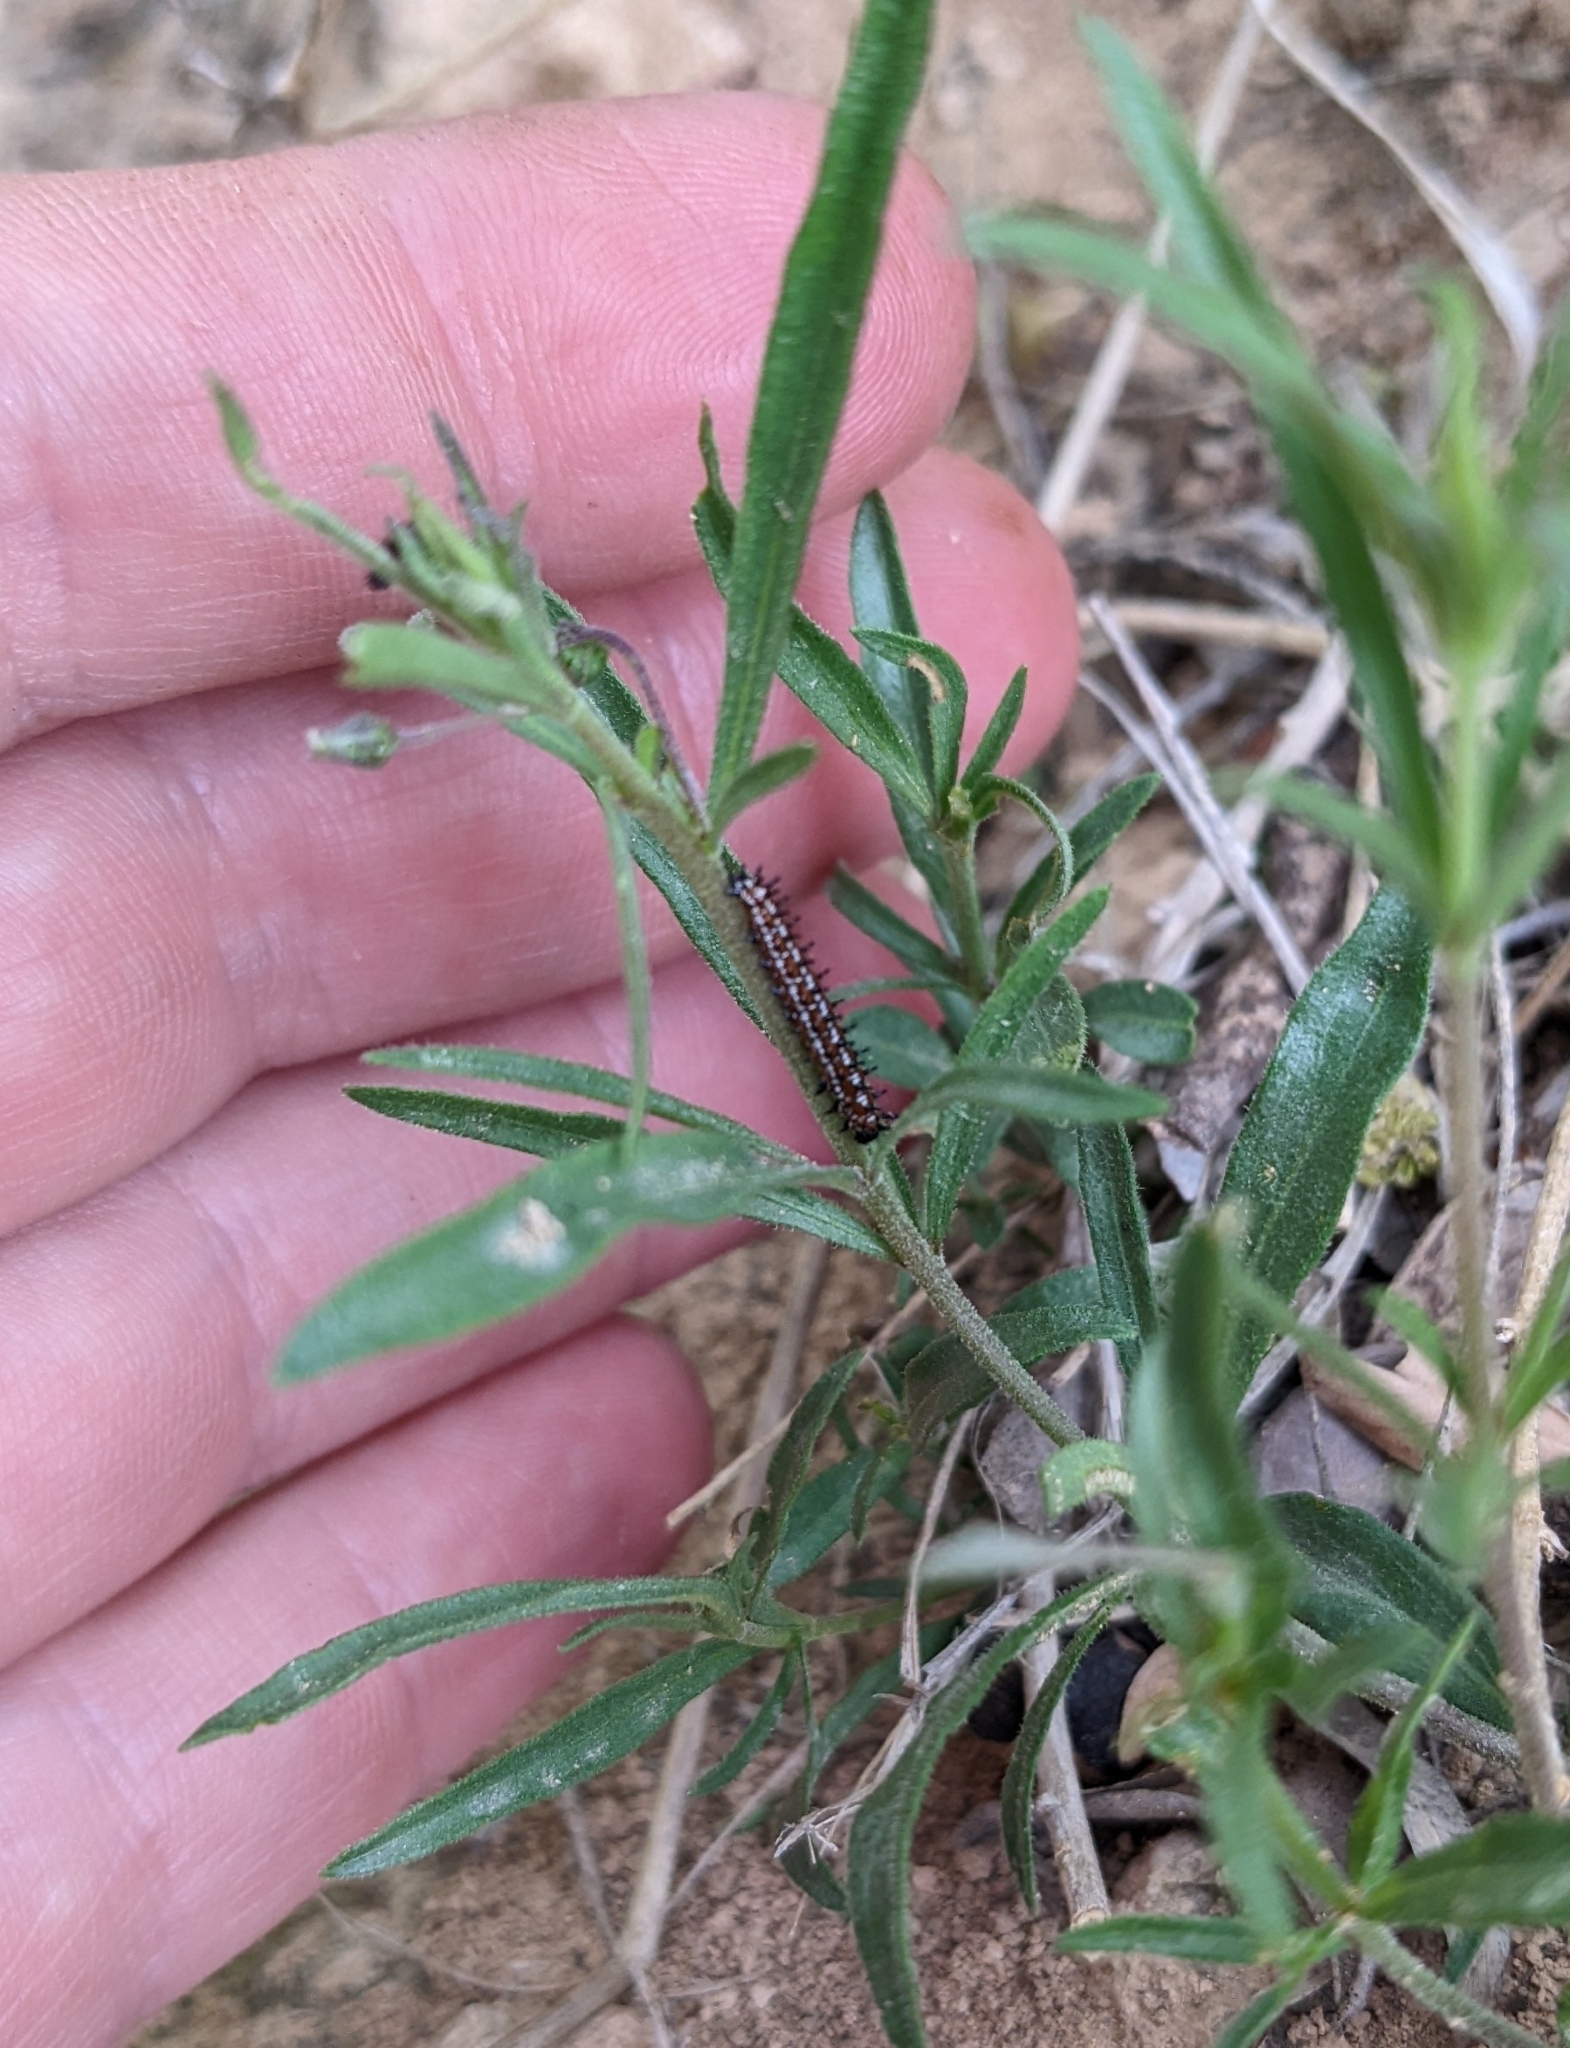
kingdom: Animalia
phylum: Arthropoda
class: Insecta
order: Lepidoptera
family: Nymphalidae
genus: Euptoieta
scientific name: Euptoieta claudia
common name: Variegated fritillary
